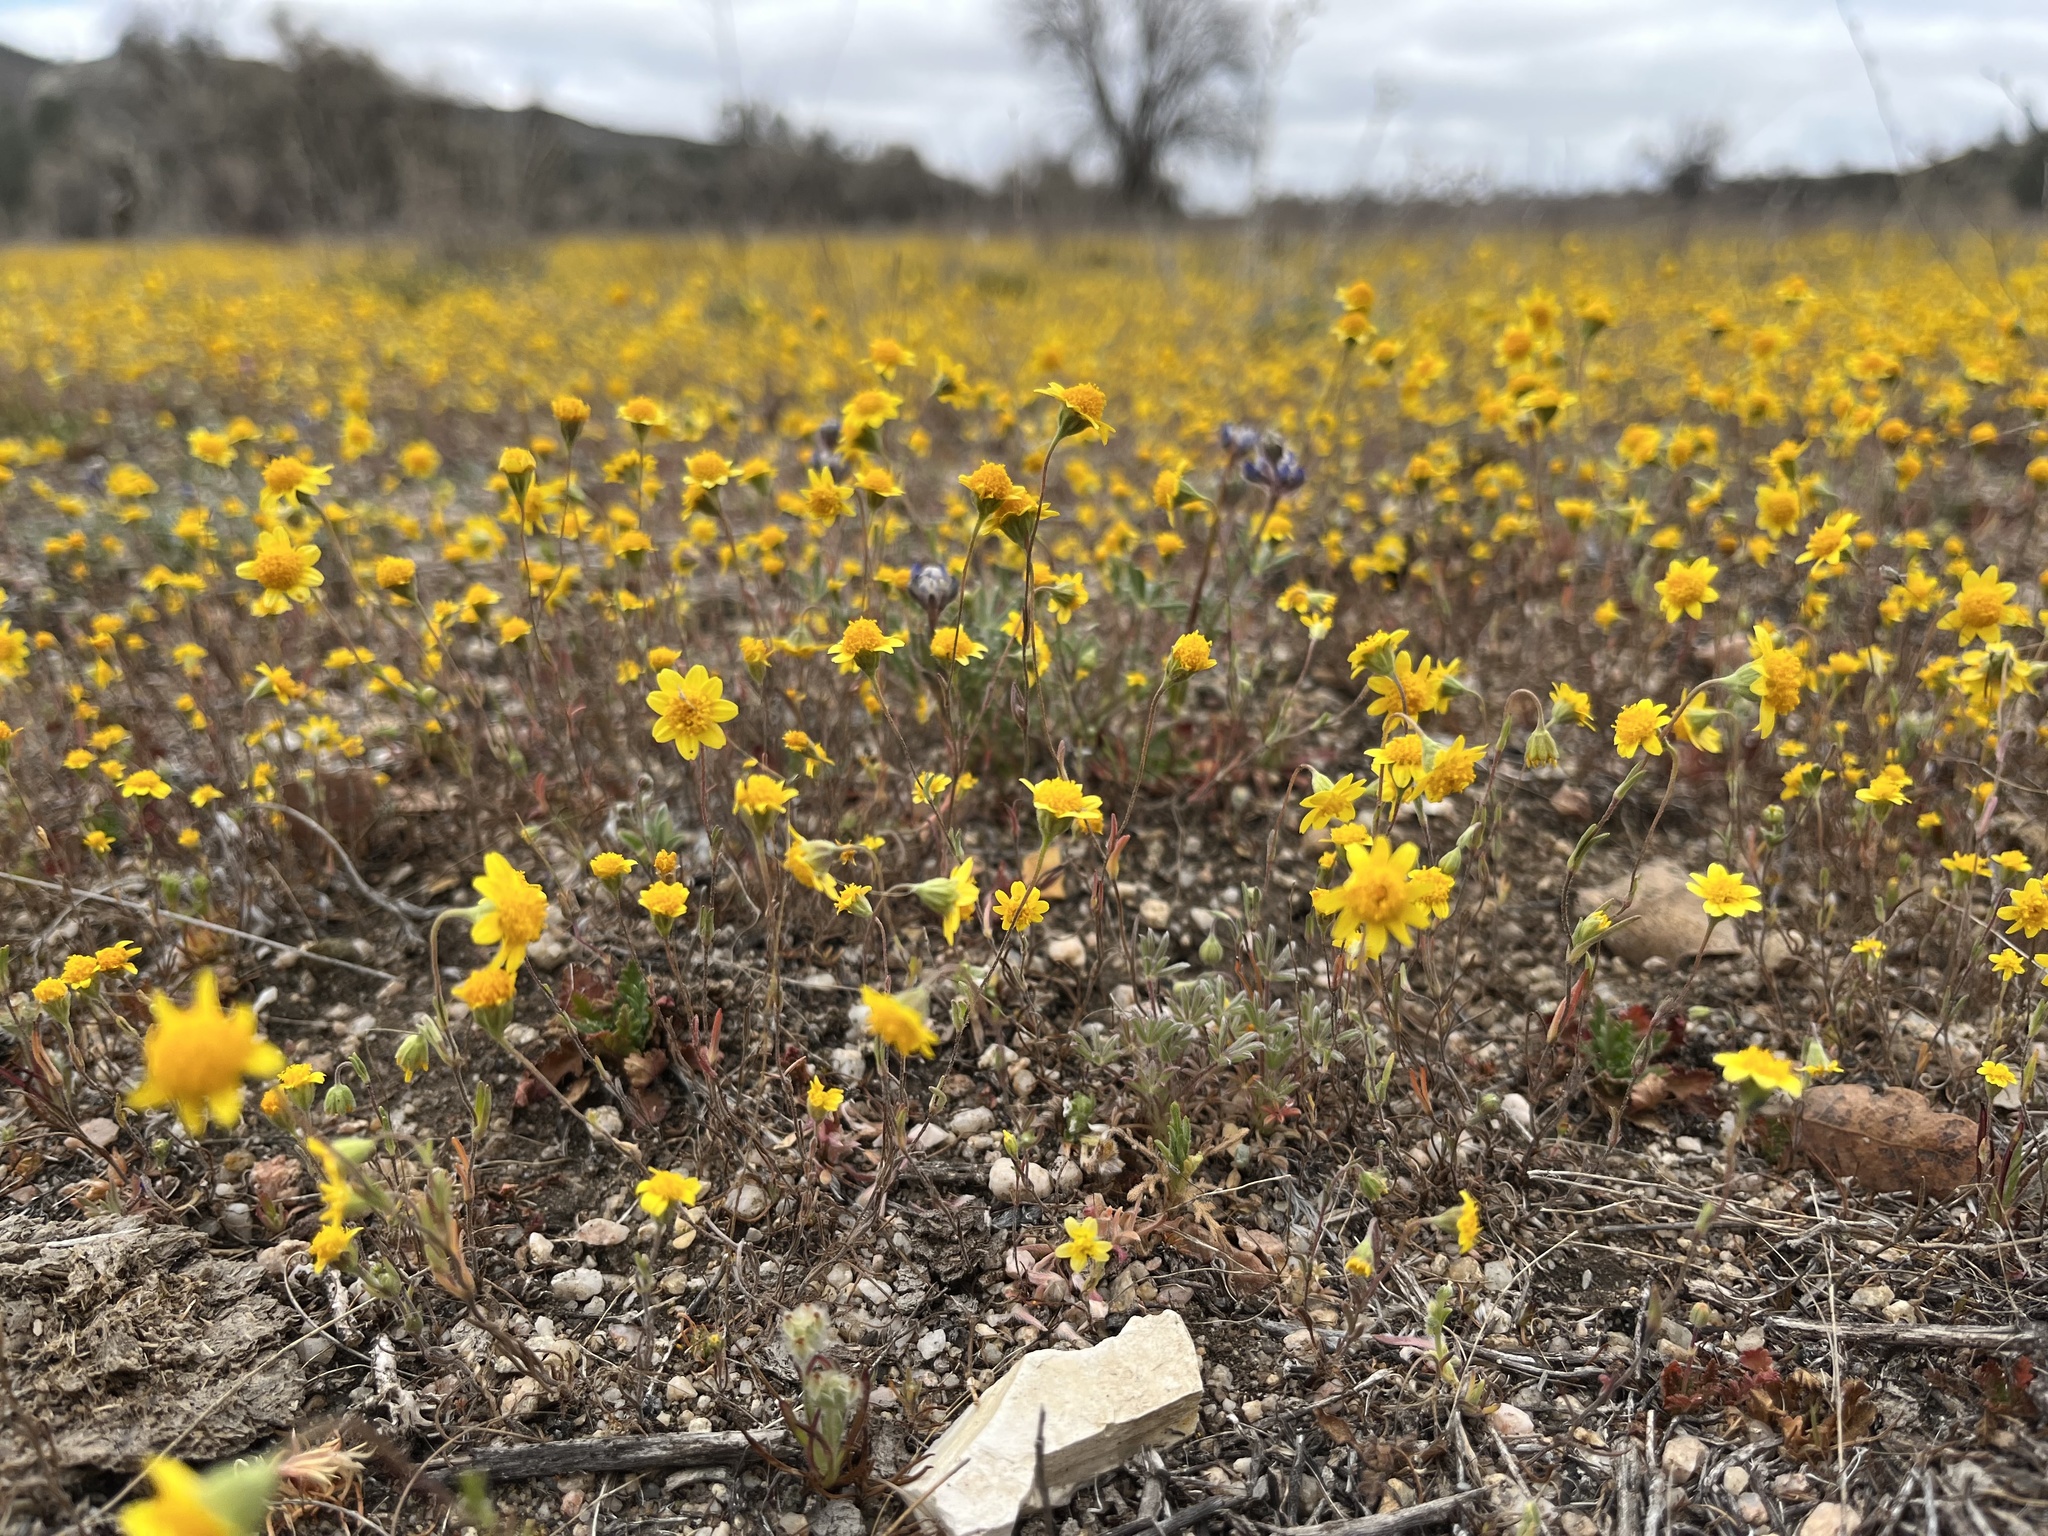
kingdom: Plantae
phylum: Tracheophyta
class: Magnoliopsida
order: Asterales
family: Asteraceae
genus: Lasthenia
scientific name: Lasthenia gracilis
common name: Common goldfields
